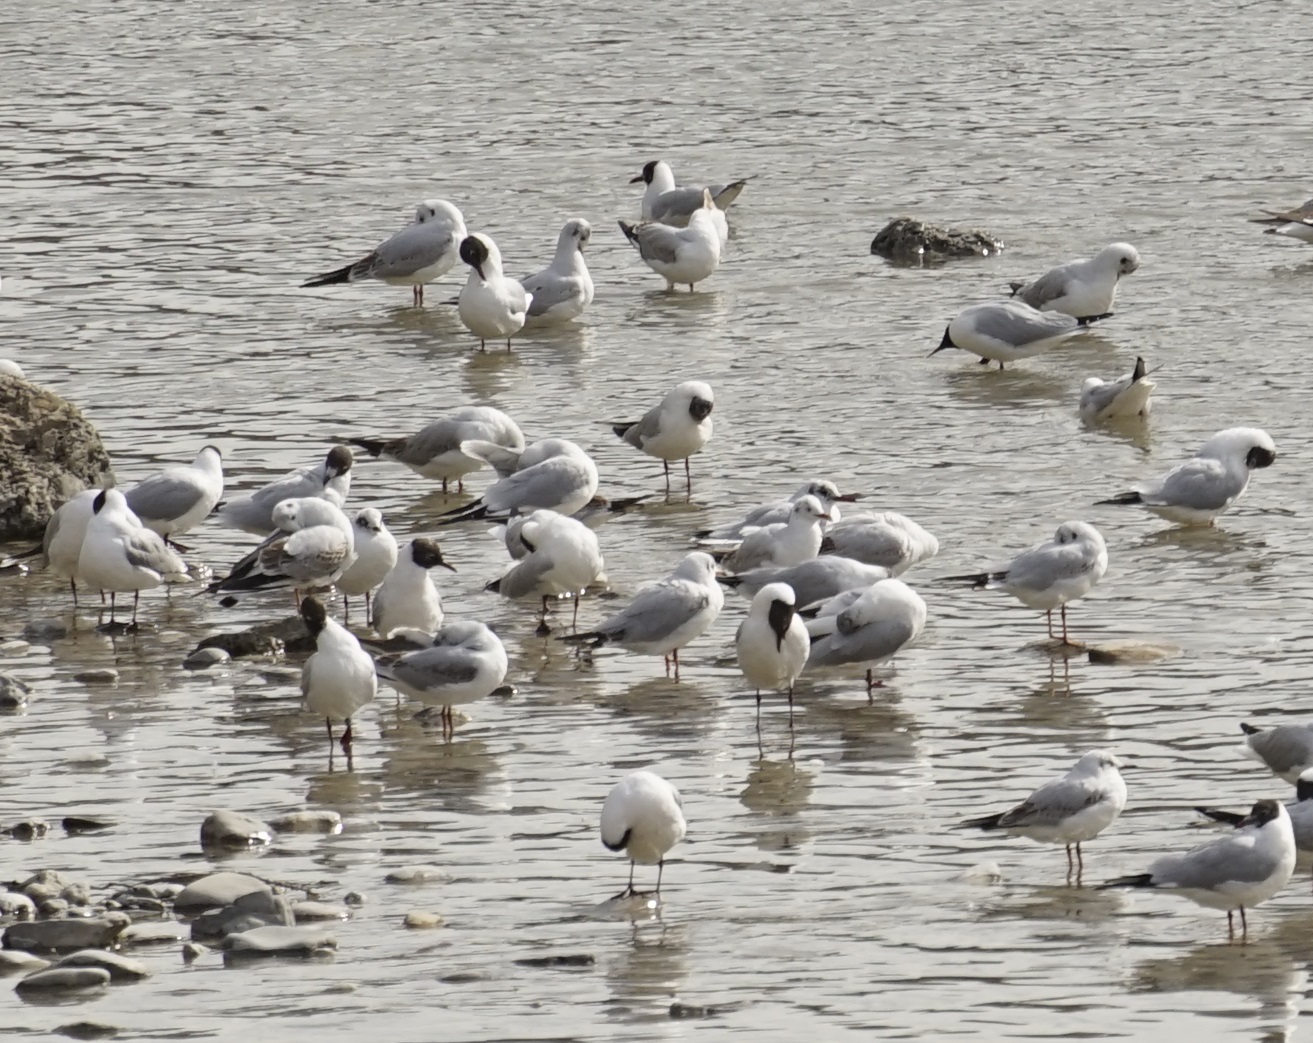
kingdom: Animalia
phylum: Chordata
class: Aves
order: Charadriiformes
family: Laridae
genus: Chroicocephalus
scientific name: Chroicocephalus ridibundus
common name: Black-headed gull
